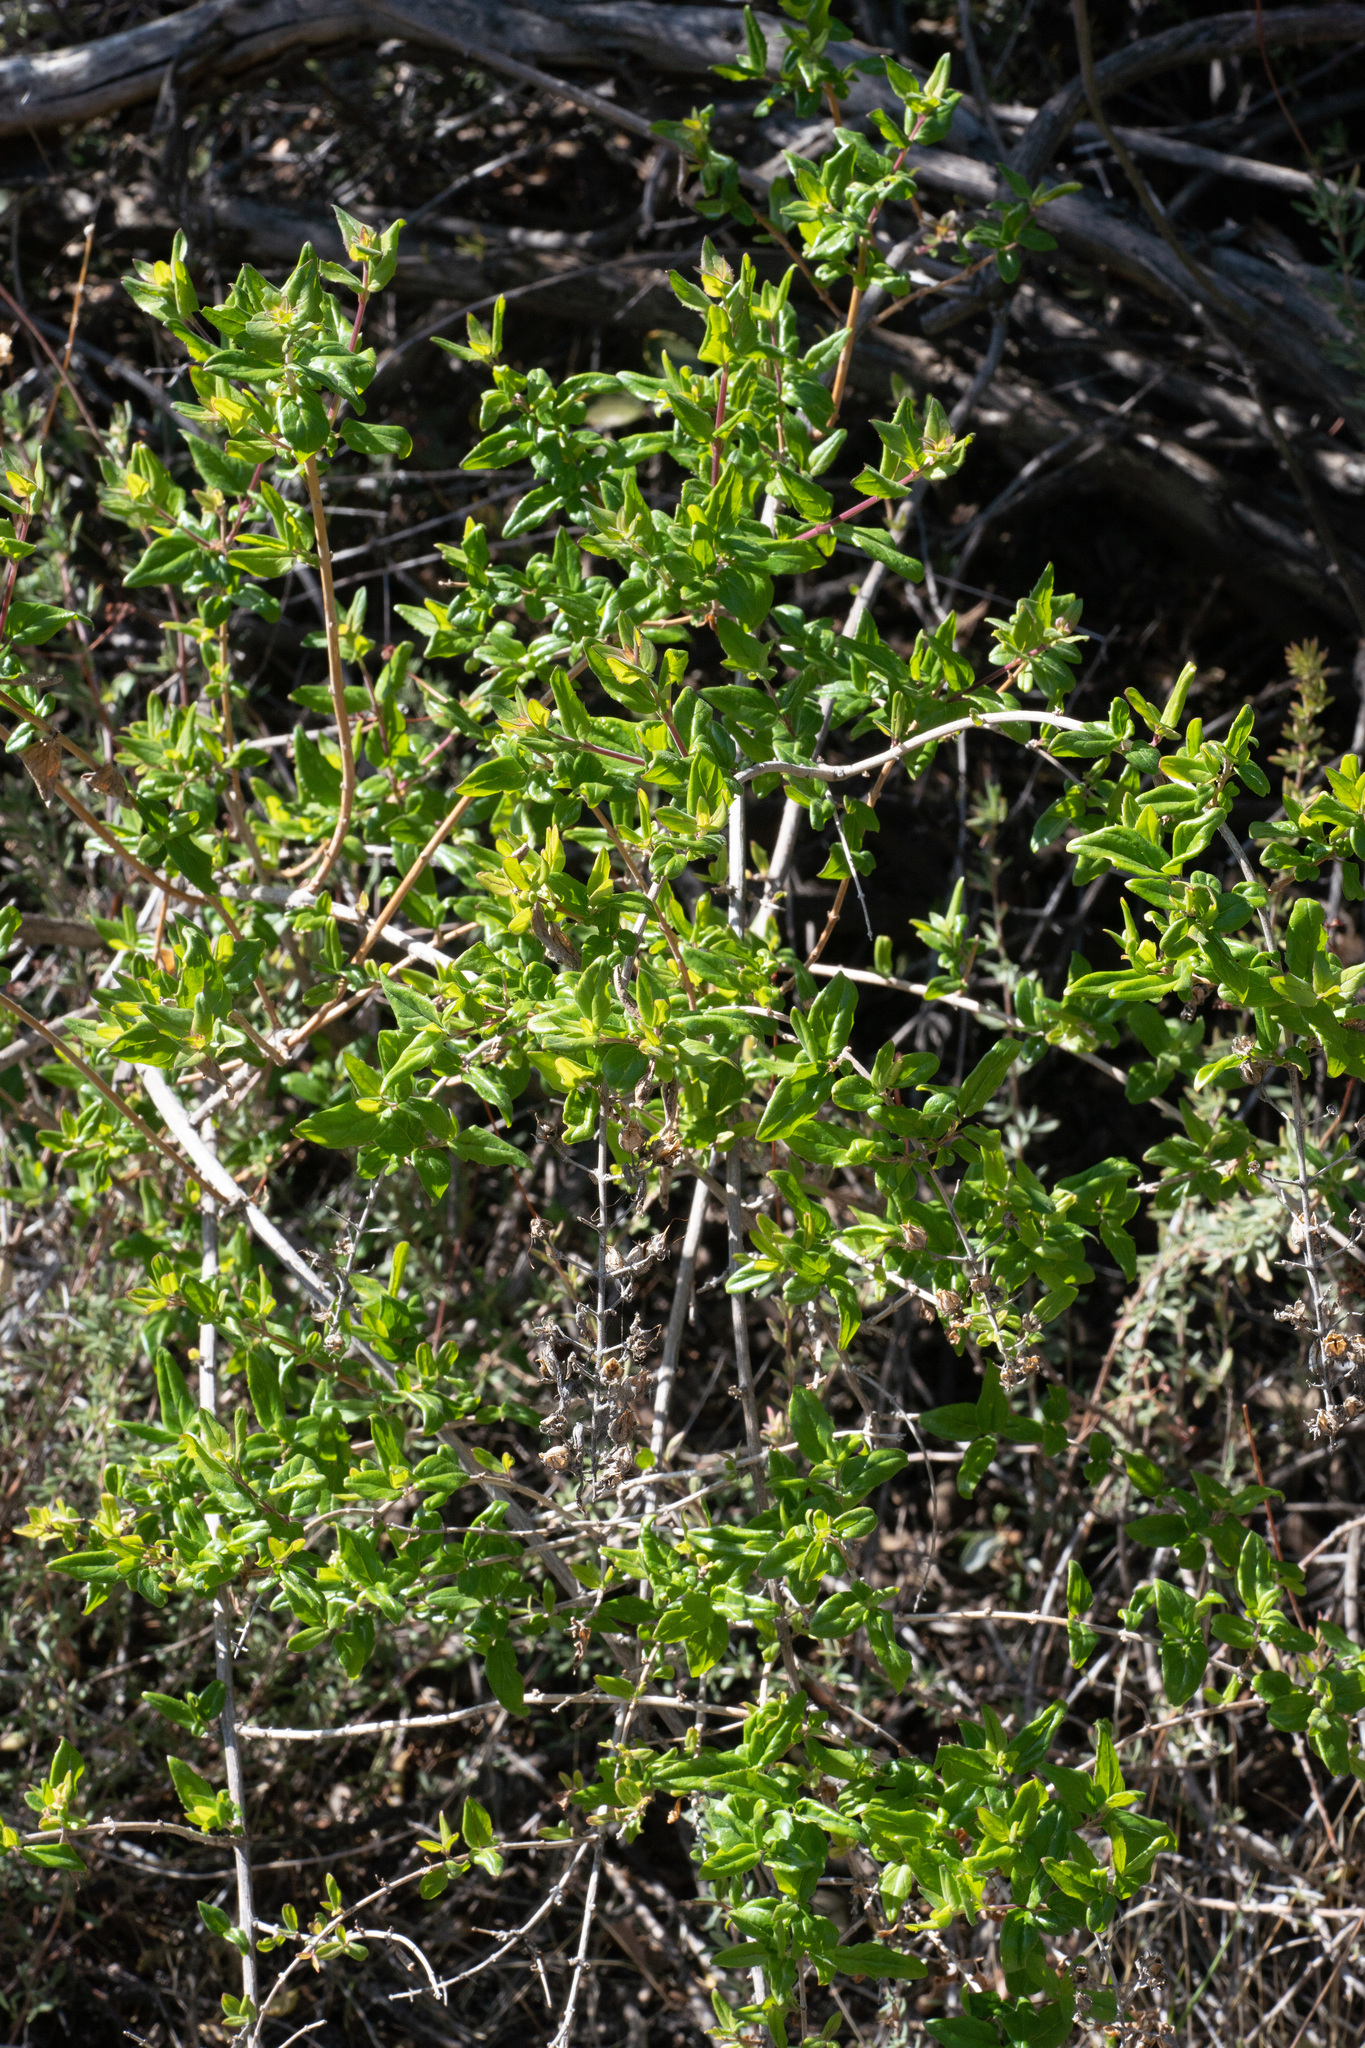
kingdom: Plantae
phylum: Tracheophyta
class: Magnoliopsida
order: Lamiales
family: Plantaginaceae
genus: Keckiella
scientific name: Keckiella cordifolia
